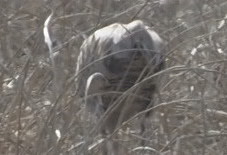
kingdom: Animalia
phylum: Chordata
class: Aves
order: Gruiformes
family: Gruidae
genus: Grus
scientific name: Grus canadensis
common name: Sandhill crane
